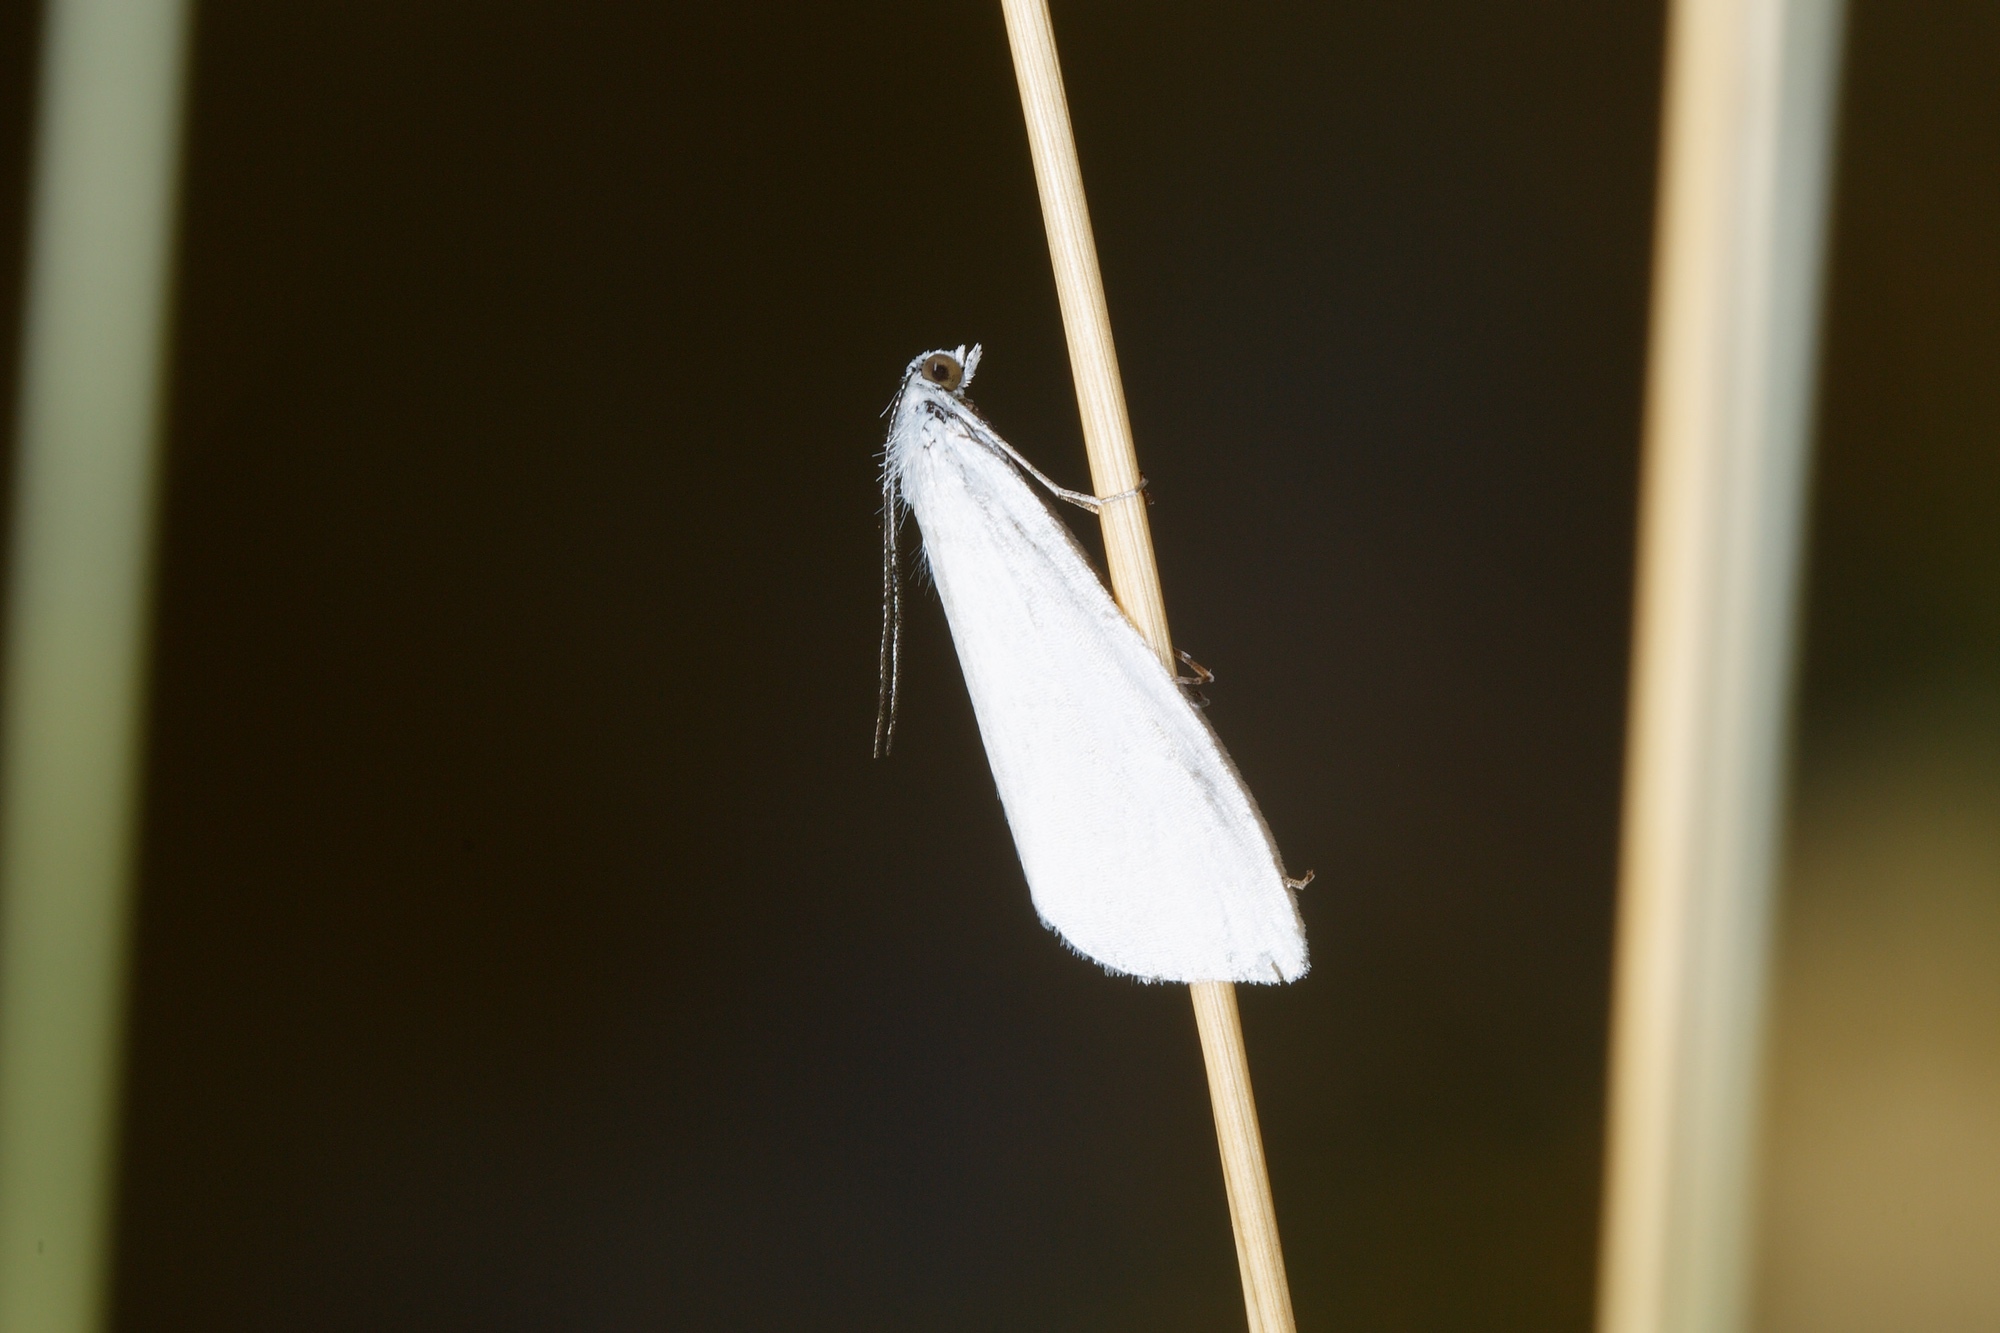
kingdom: Animalia
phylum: Arthropoda
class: Insecta
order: Lepidoptera
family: Crambidae
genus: Tipanaea
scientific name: Tipanaea patulella
